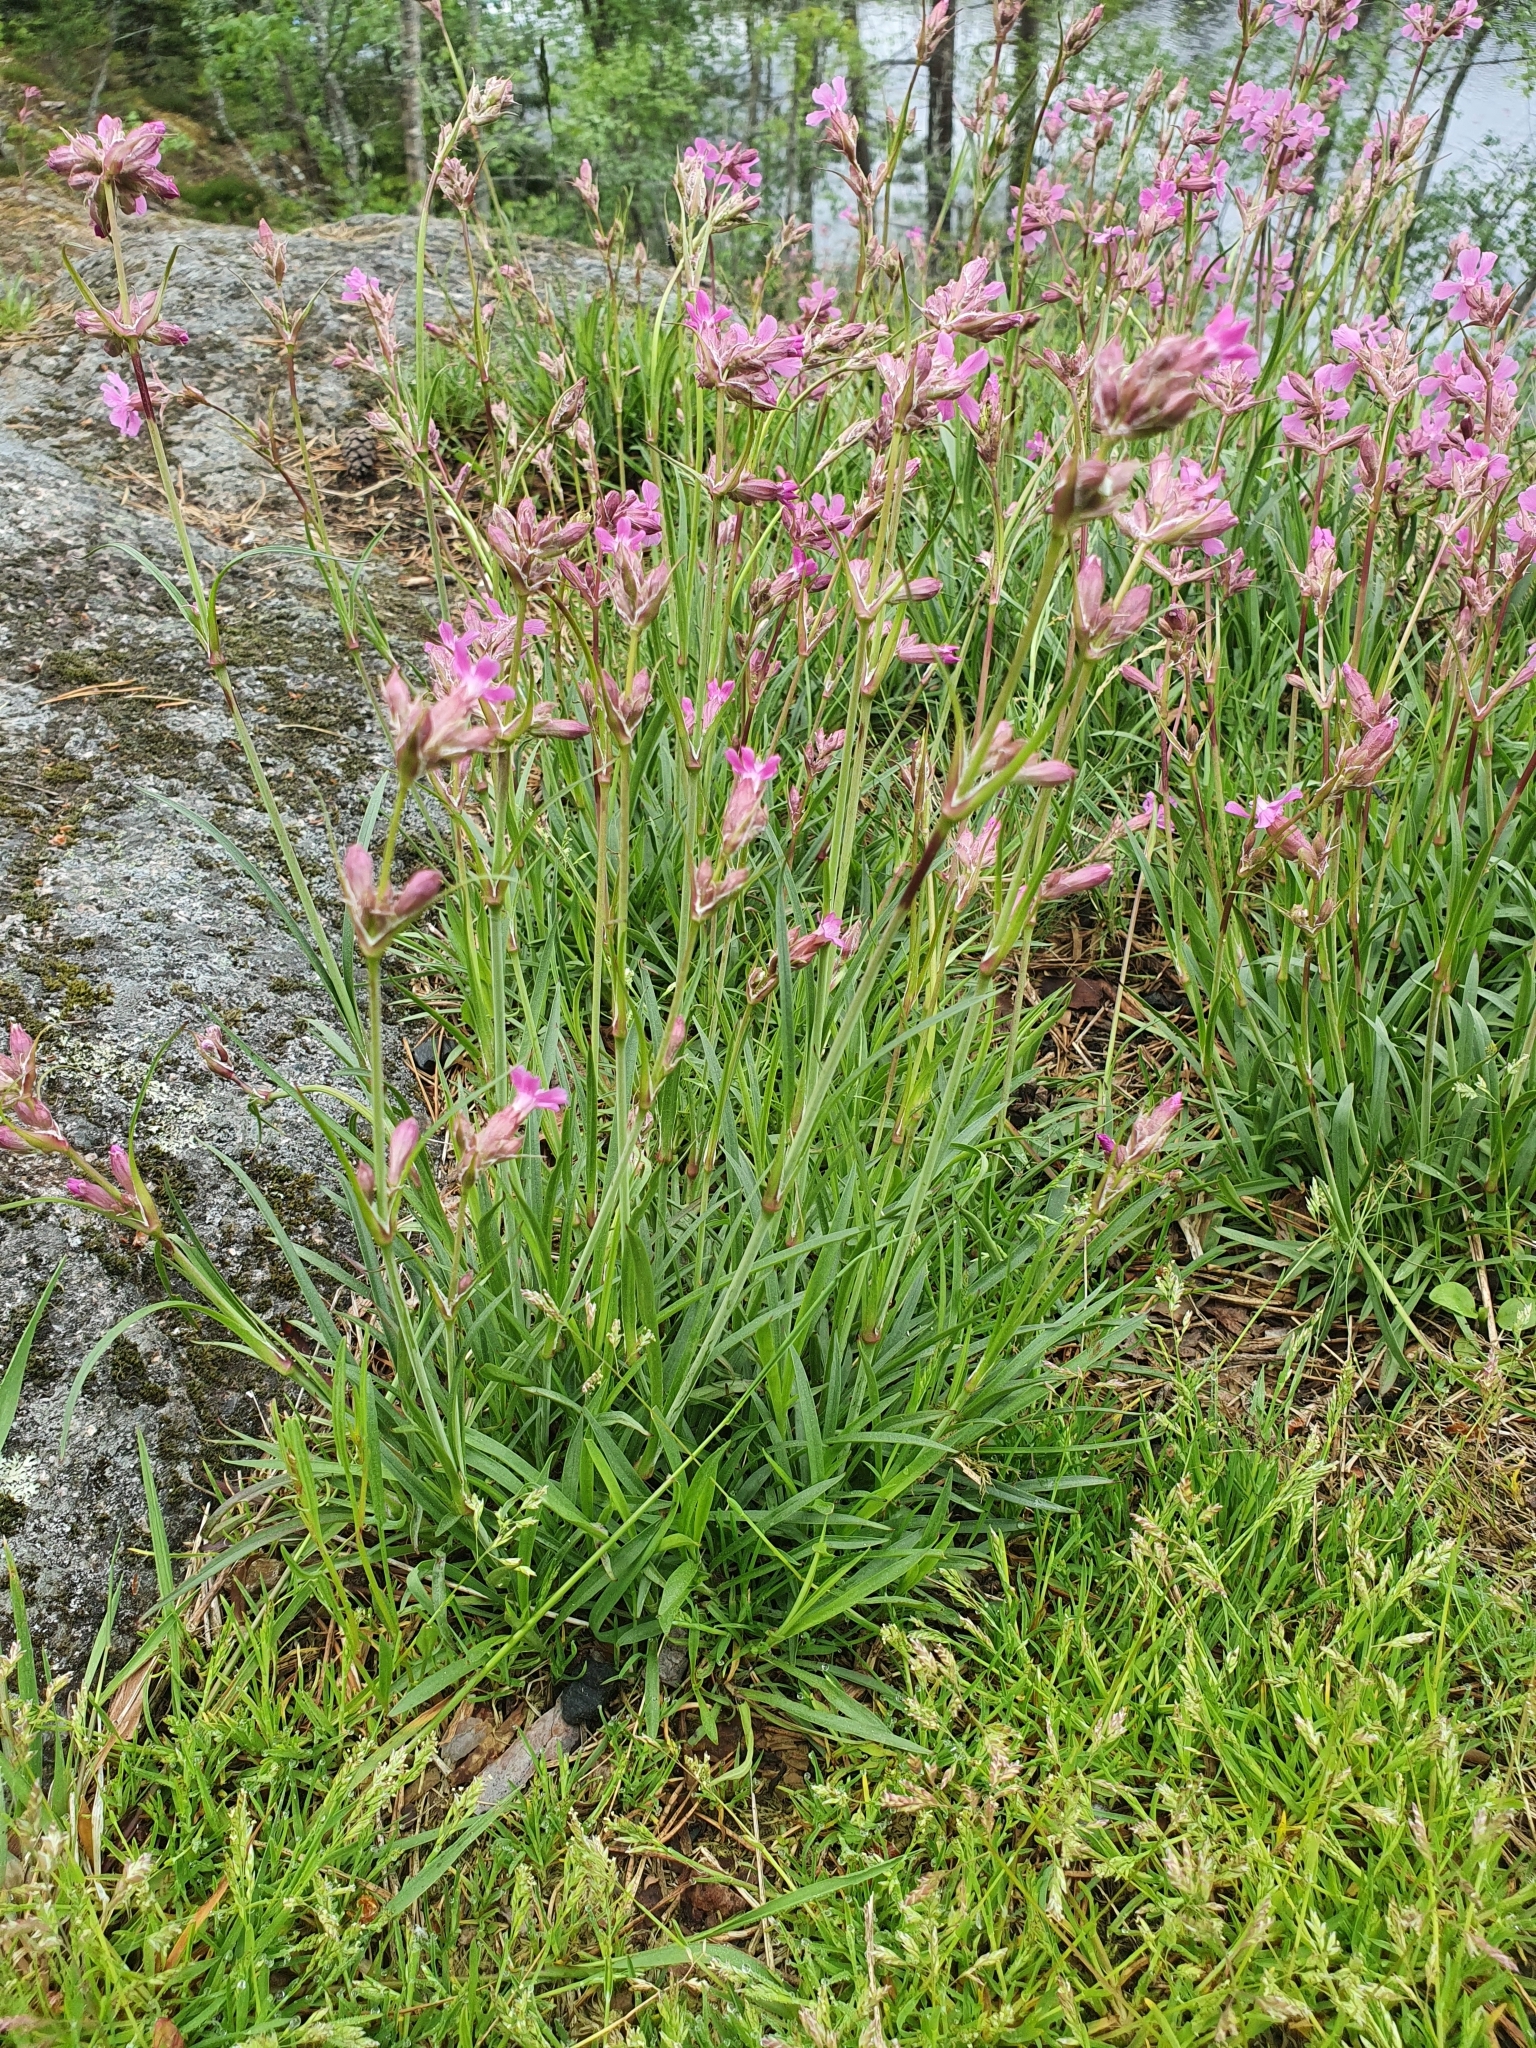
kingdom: Plantae
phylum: Tracheophyta
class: Magnoliopsida
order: Caryophyllales
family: Caryophyllaceae
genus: Viscaria
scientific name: Viscaria vulgaris
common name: Clammy campion
